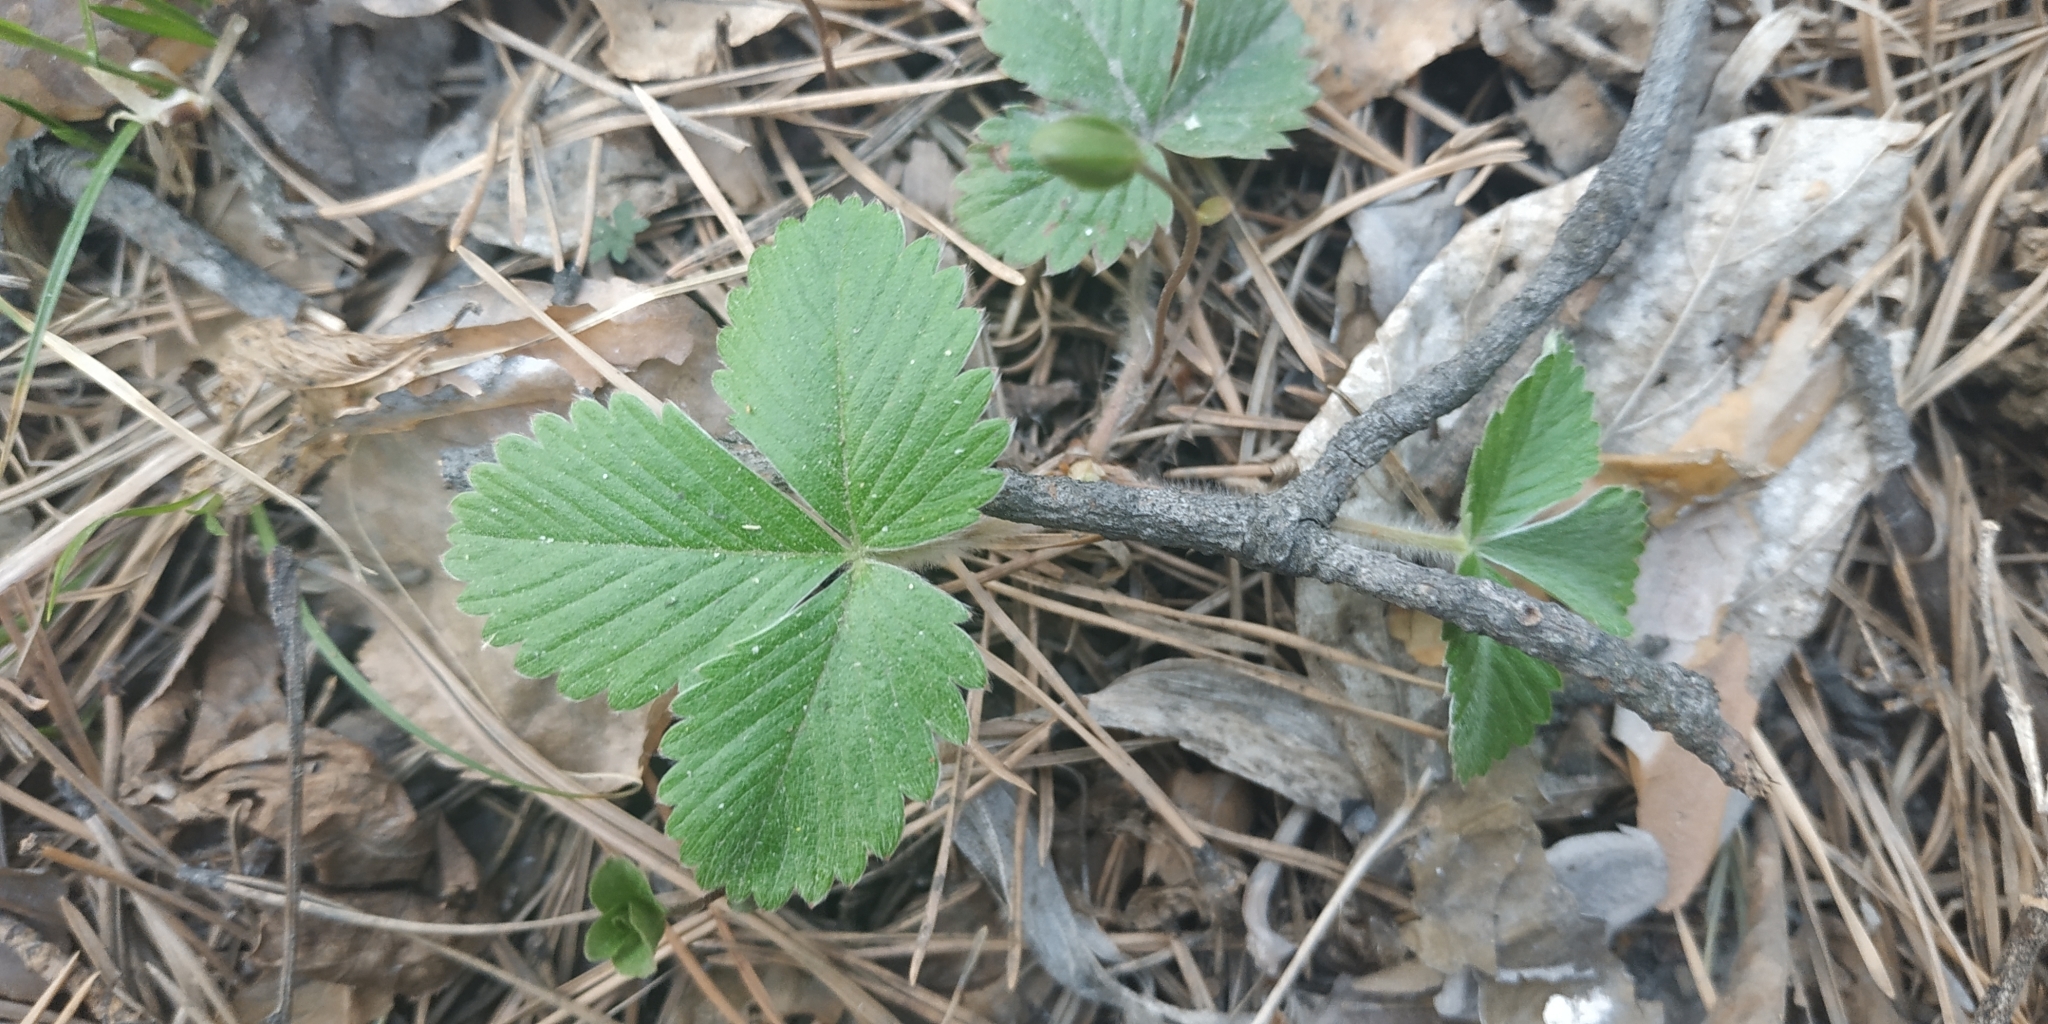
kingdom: Plantae
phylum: Tracheophyta
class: Magnoliopsida
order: Rosales
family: Rosaceae
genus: Fragaria
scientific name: Fragaria vesca
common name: Wild strawberry
